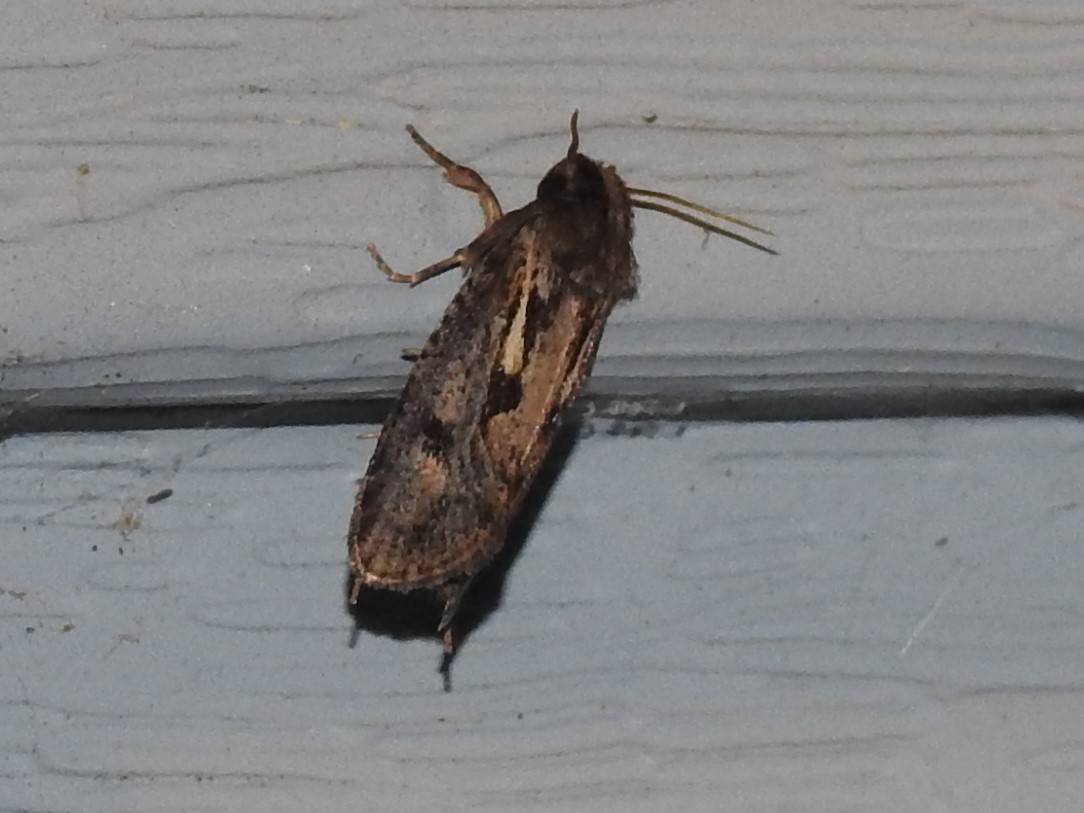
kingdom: Animalia
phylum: Arthropoda
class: Insecta
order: Lepidoptera
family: Tineidae
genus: Acrolophus
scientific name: Acrolophus popeanella
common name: Clemens' grass tubeworm moth
